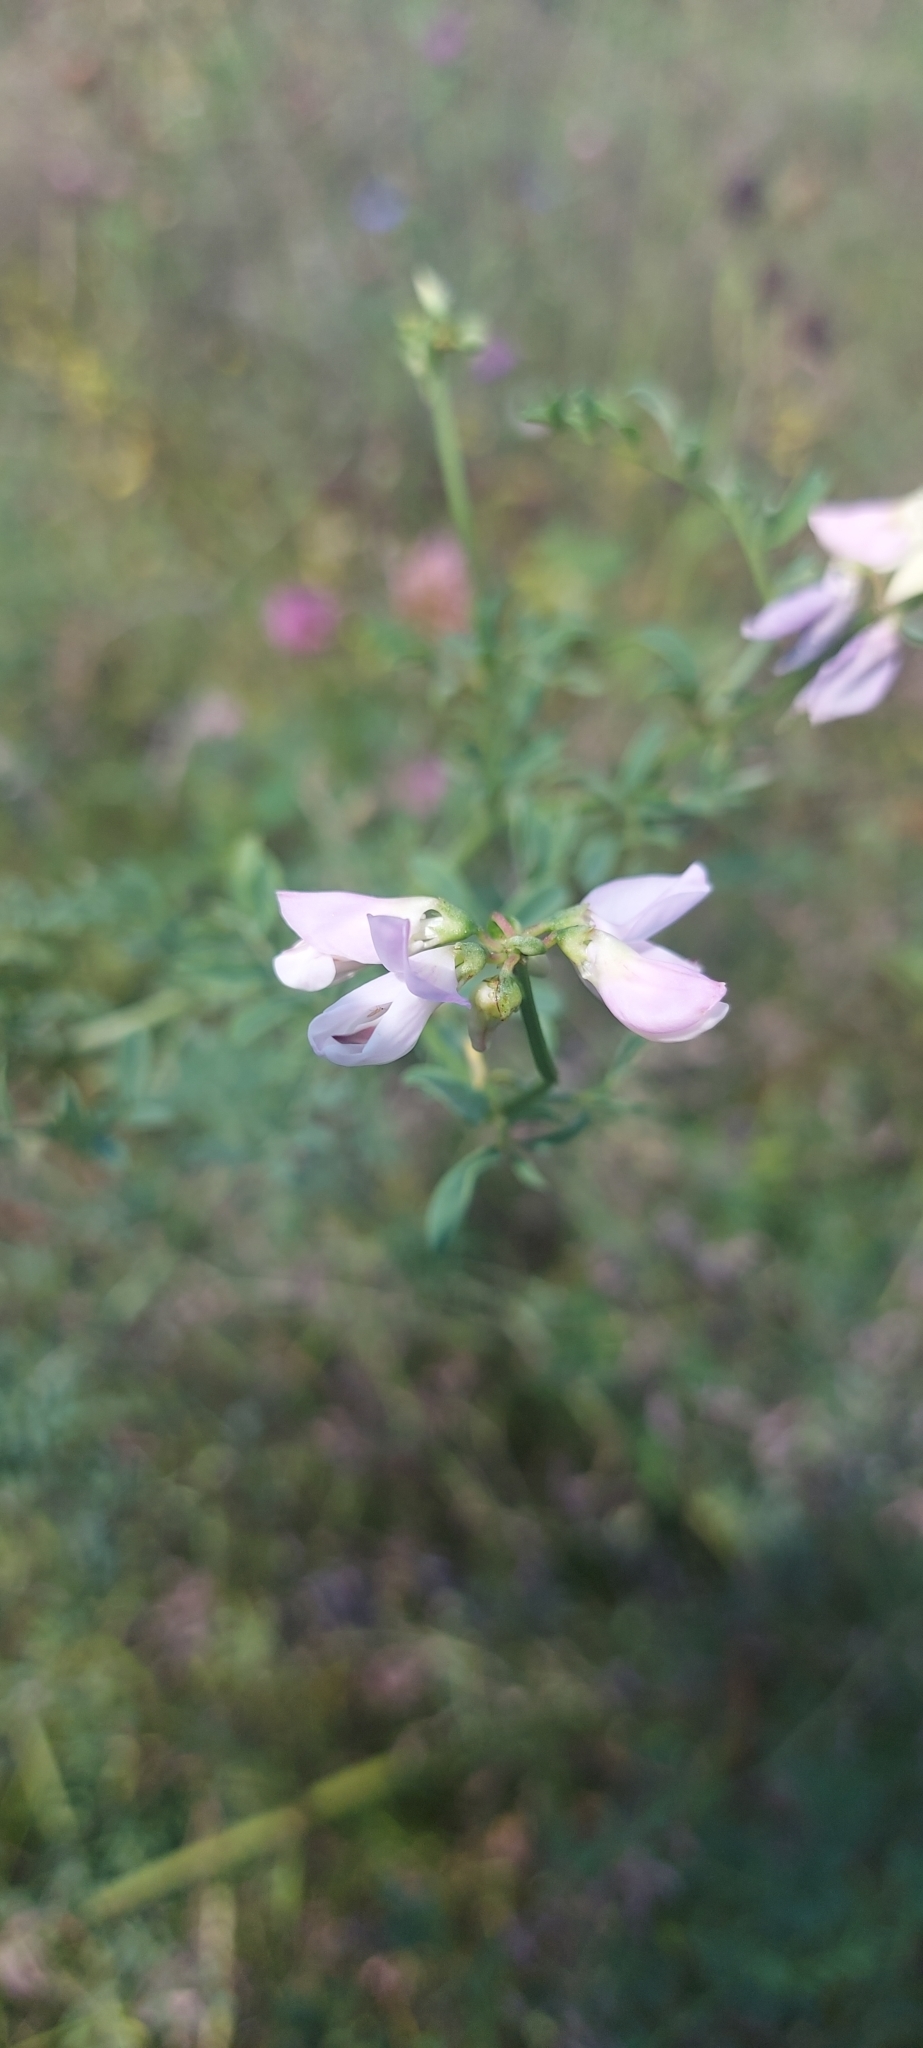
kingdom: Plantae
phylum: Tracheophyta
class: Magnoliopsida
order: Fabales
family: Fabaceae
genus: Coronilla
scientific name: Coronilla varia
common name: Crownvetch
